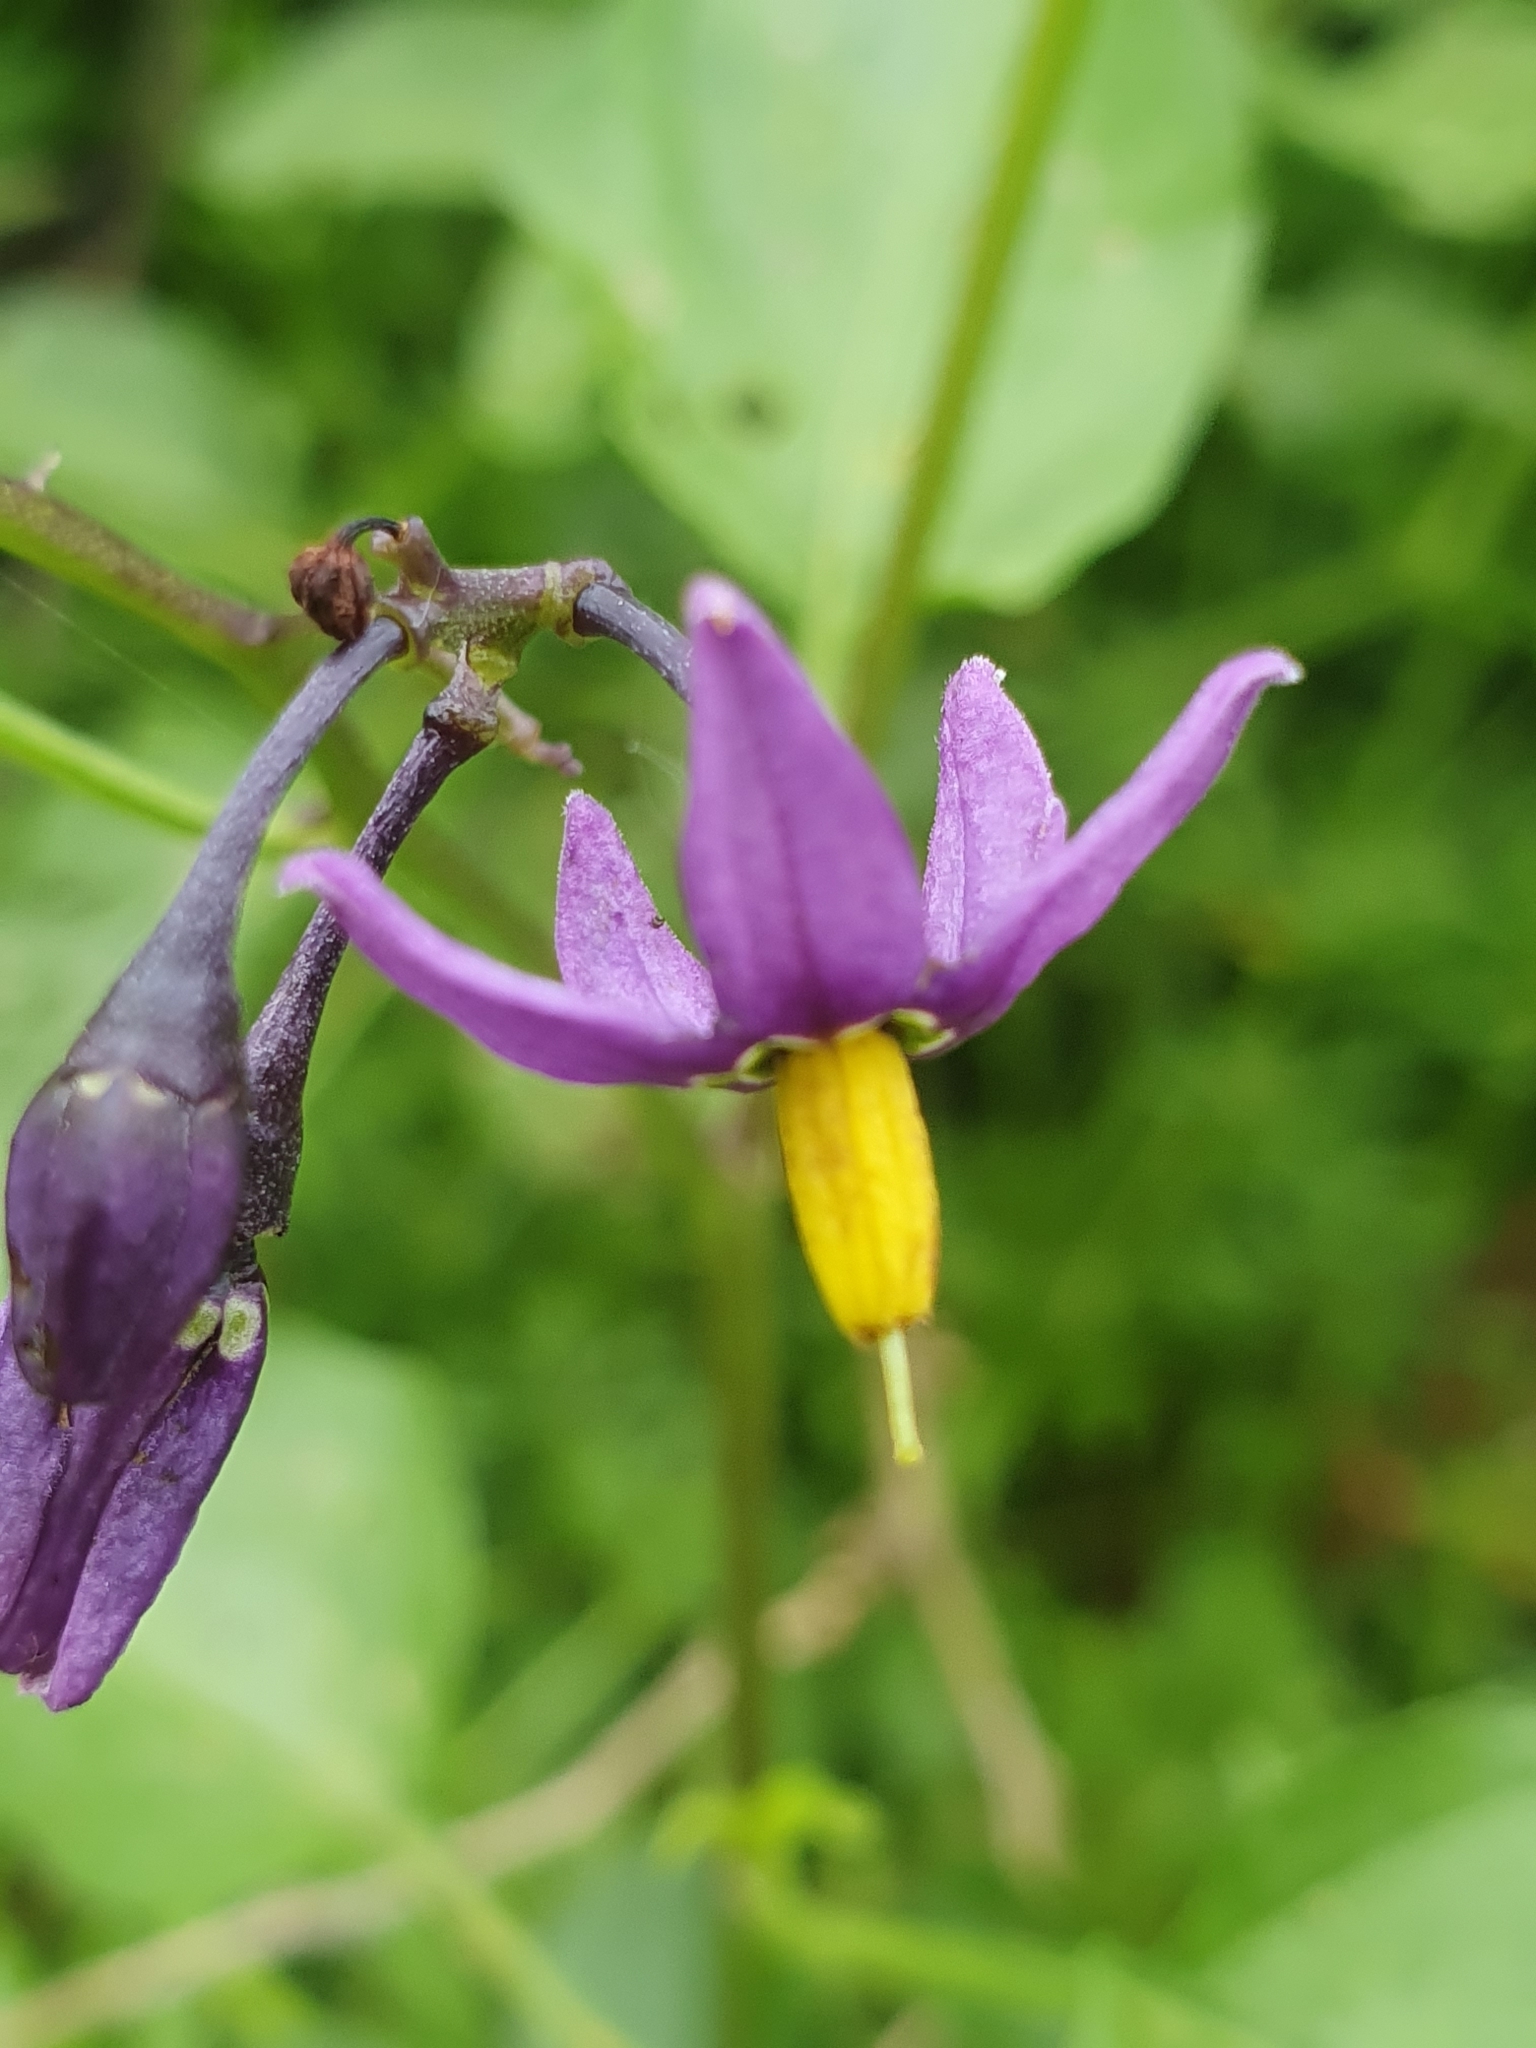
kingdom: Plantae
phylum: Tracheophyta
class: Magnoliopsida
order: Solanales
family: Solanaceae
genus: Solanum
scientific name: Solanum dulcamara
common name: Climbing nightshade
